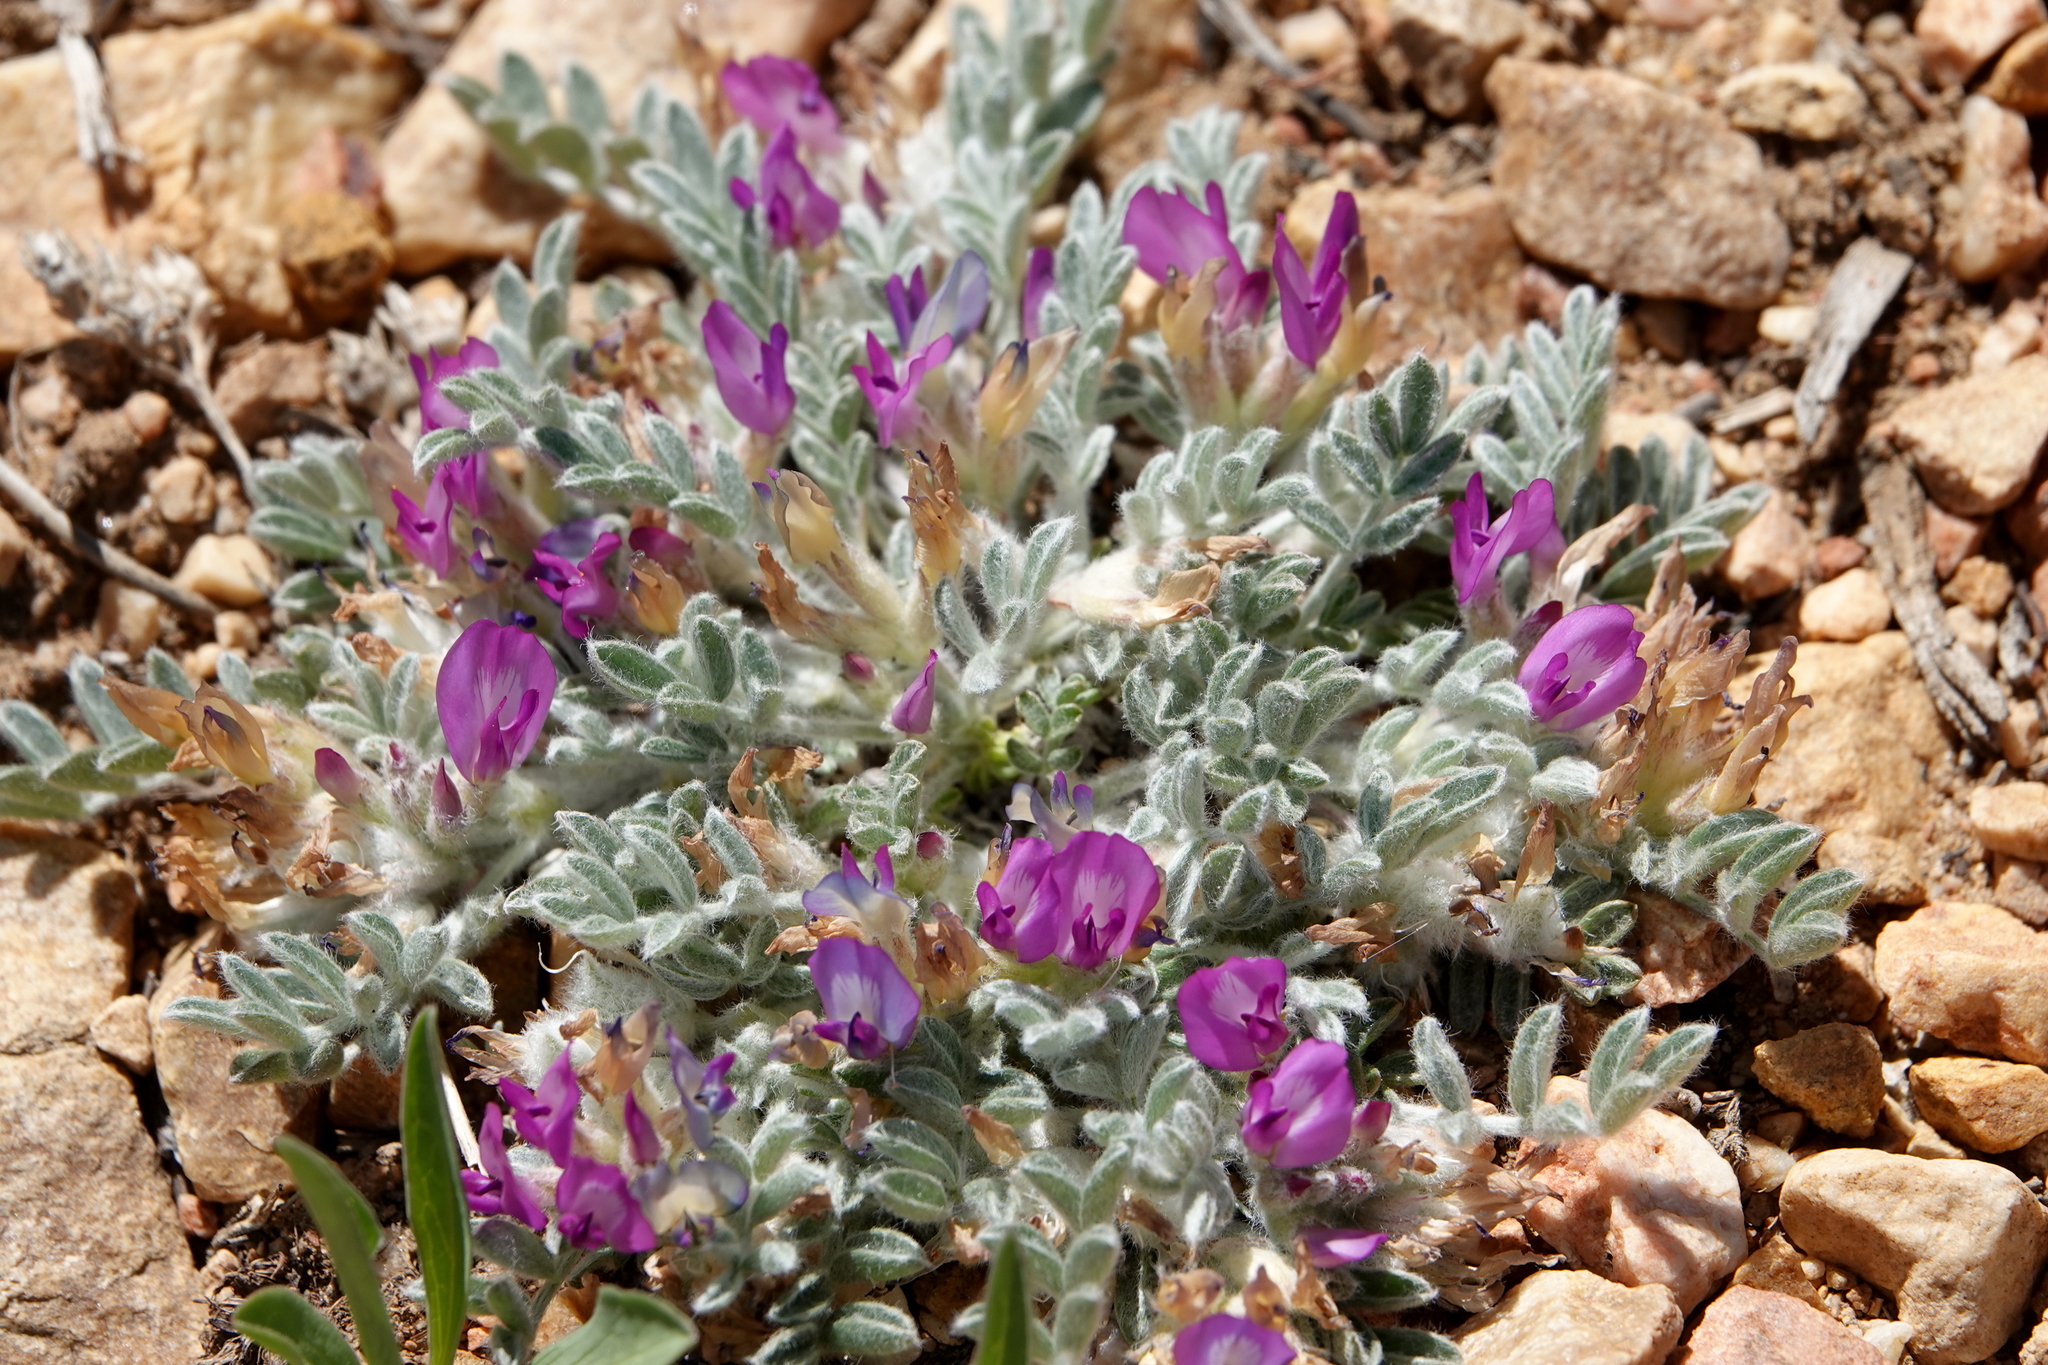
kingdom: Plantae
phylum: Tracheophyta
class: Magnoliopsida
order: Fabales
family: Fabaceae
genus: Astragalus
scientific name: Astragalus purshii
